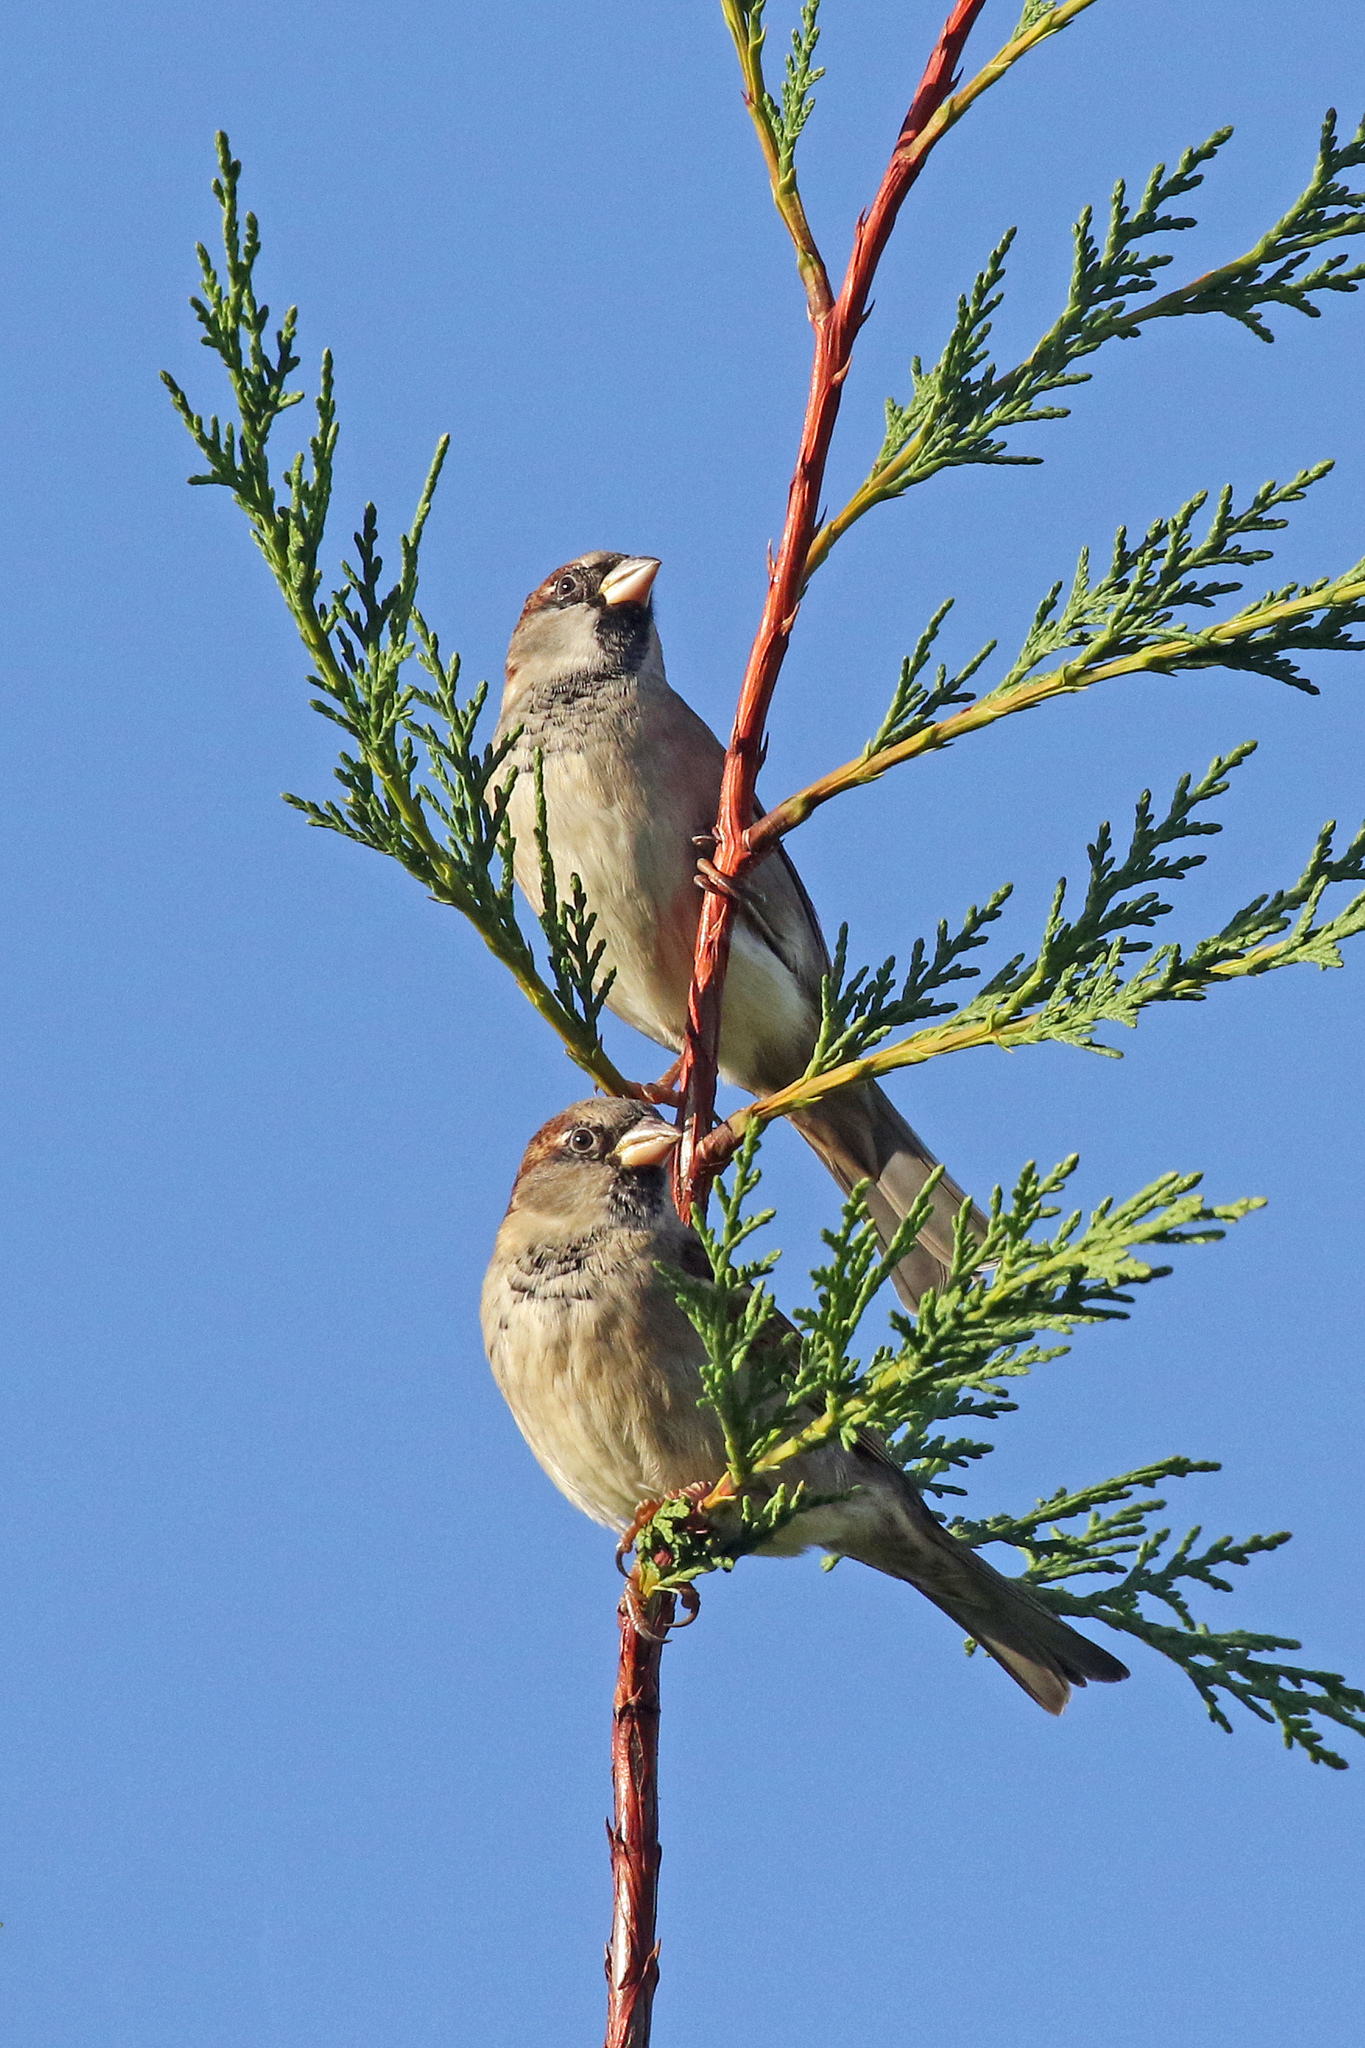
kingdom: Animalia
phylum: Chordata
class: Aves
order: Passeriformes
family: Passeridae
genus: Passer
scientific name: Passer domesticus
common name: House sparrow
